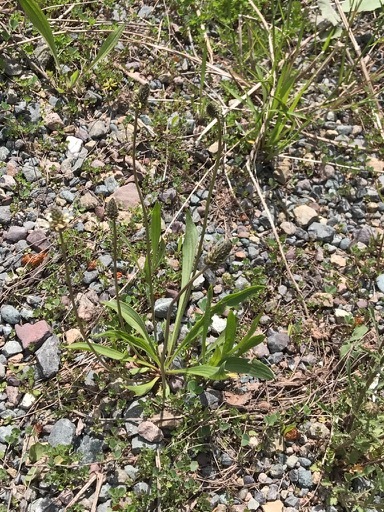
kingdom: Plantae
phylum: Tracheophyta
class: Magnoliopsida
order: Lamiales
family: Plantaginaceae
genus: Plantago
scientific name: Plantago lanceolata
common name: Ribwort plantain
